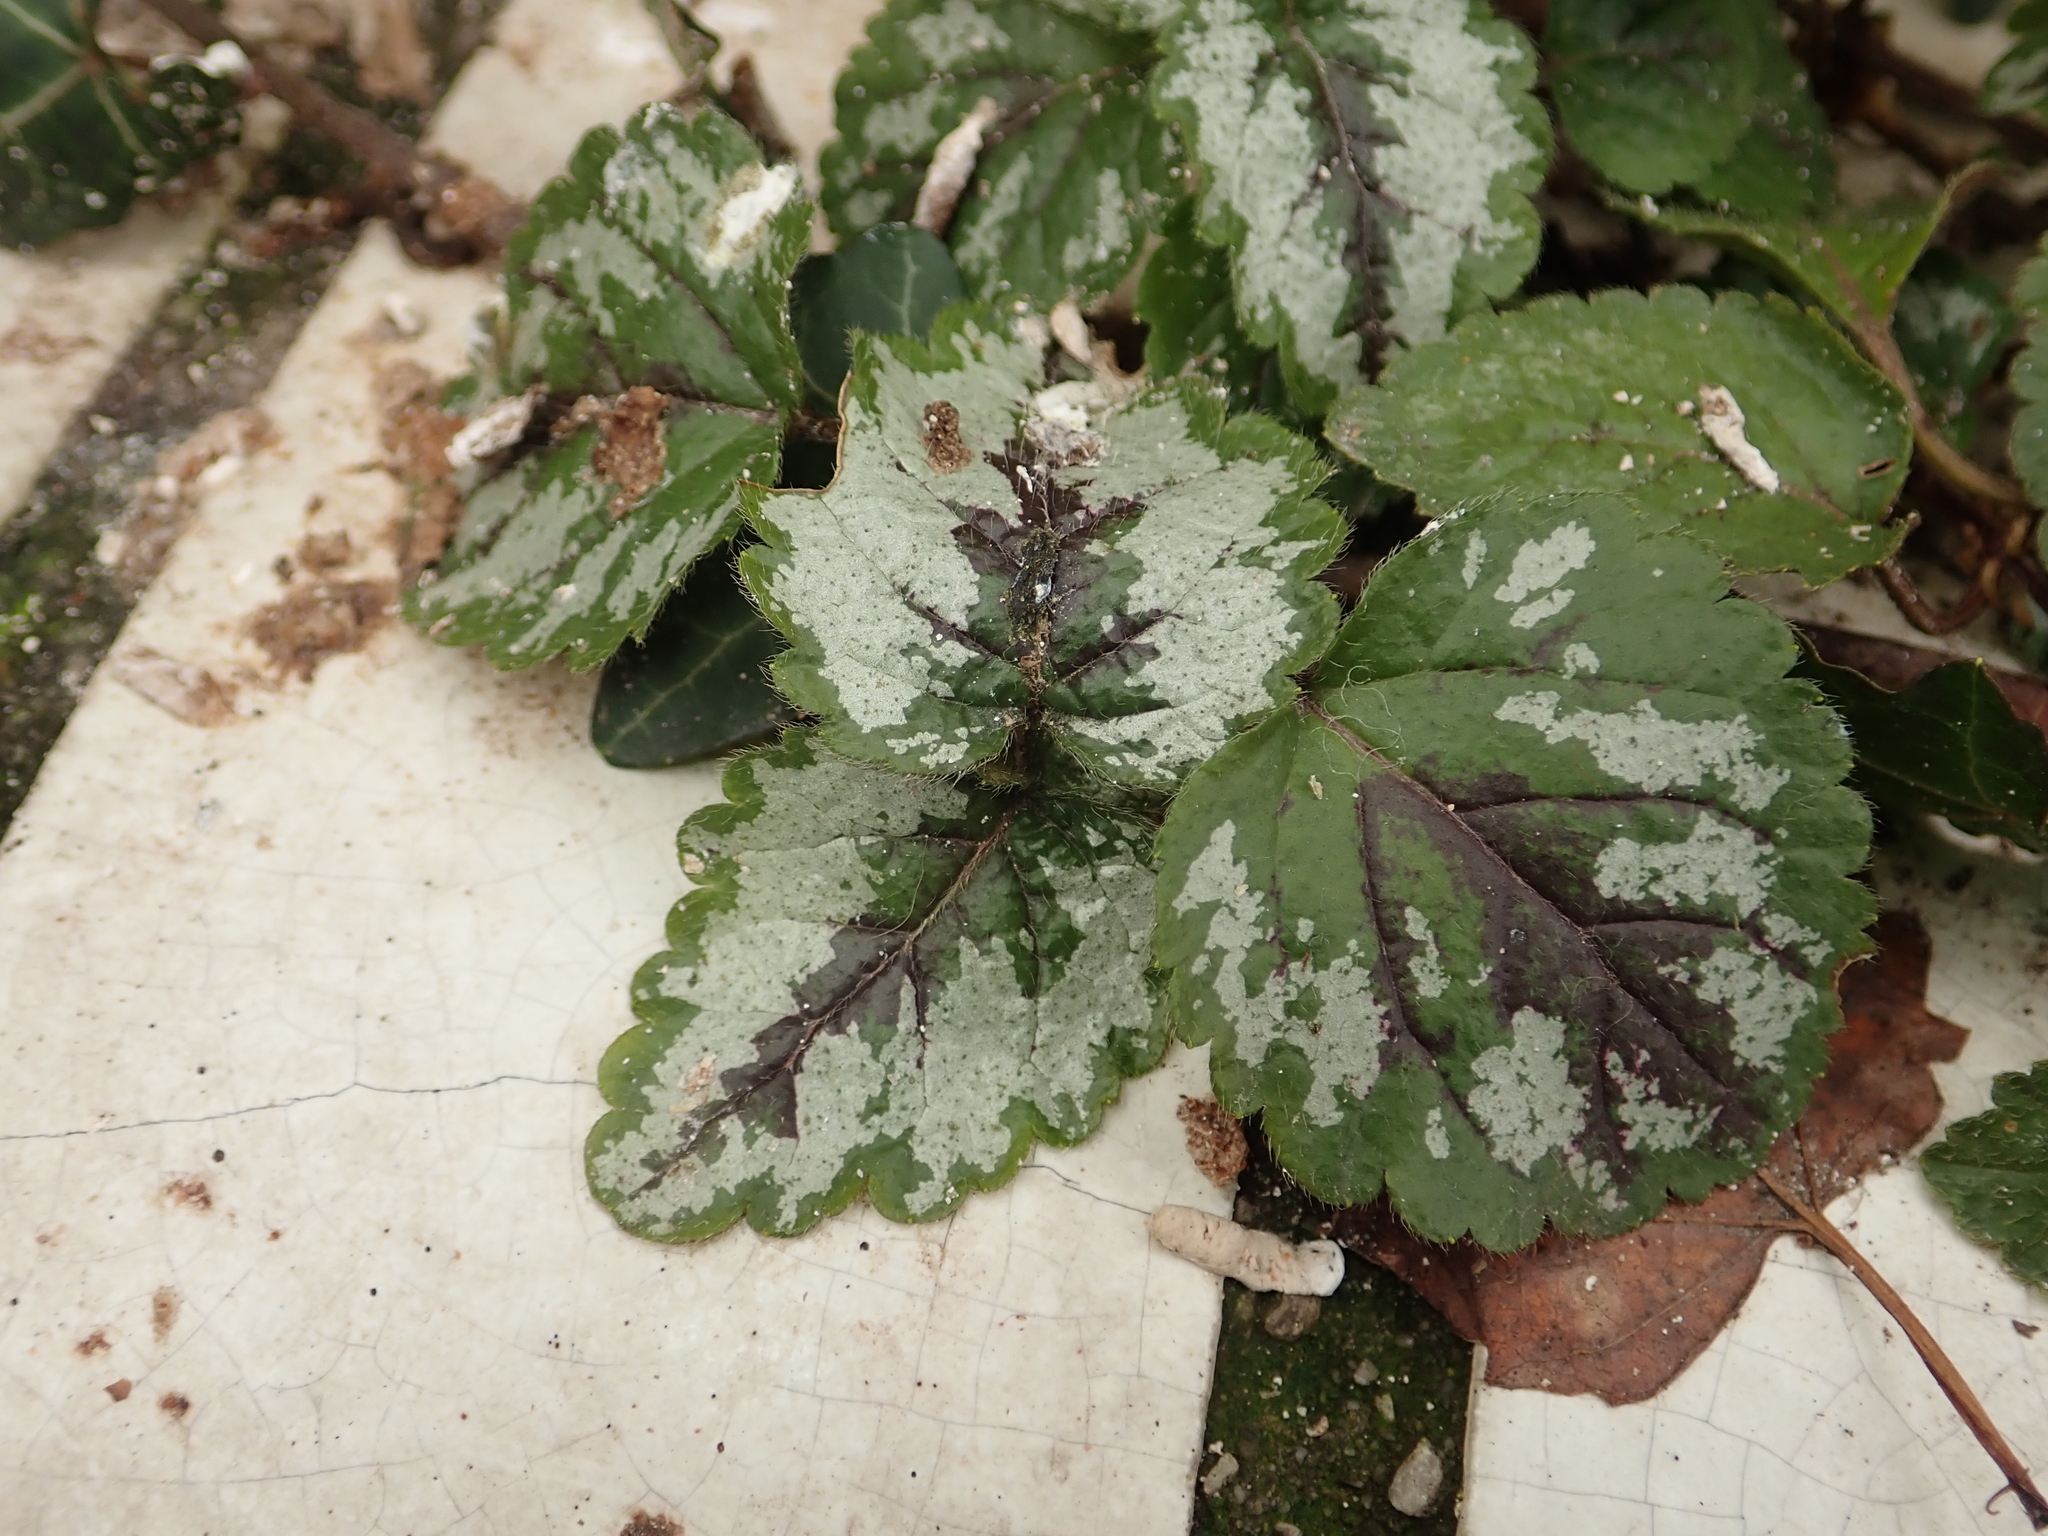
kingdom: Plantae
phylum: Tracheophyta
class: Magnoliopsida
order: Lamiales
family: Lamiaceae
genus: Lamium
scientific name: Lamium galeobdolon
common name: Yellow archangel
